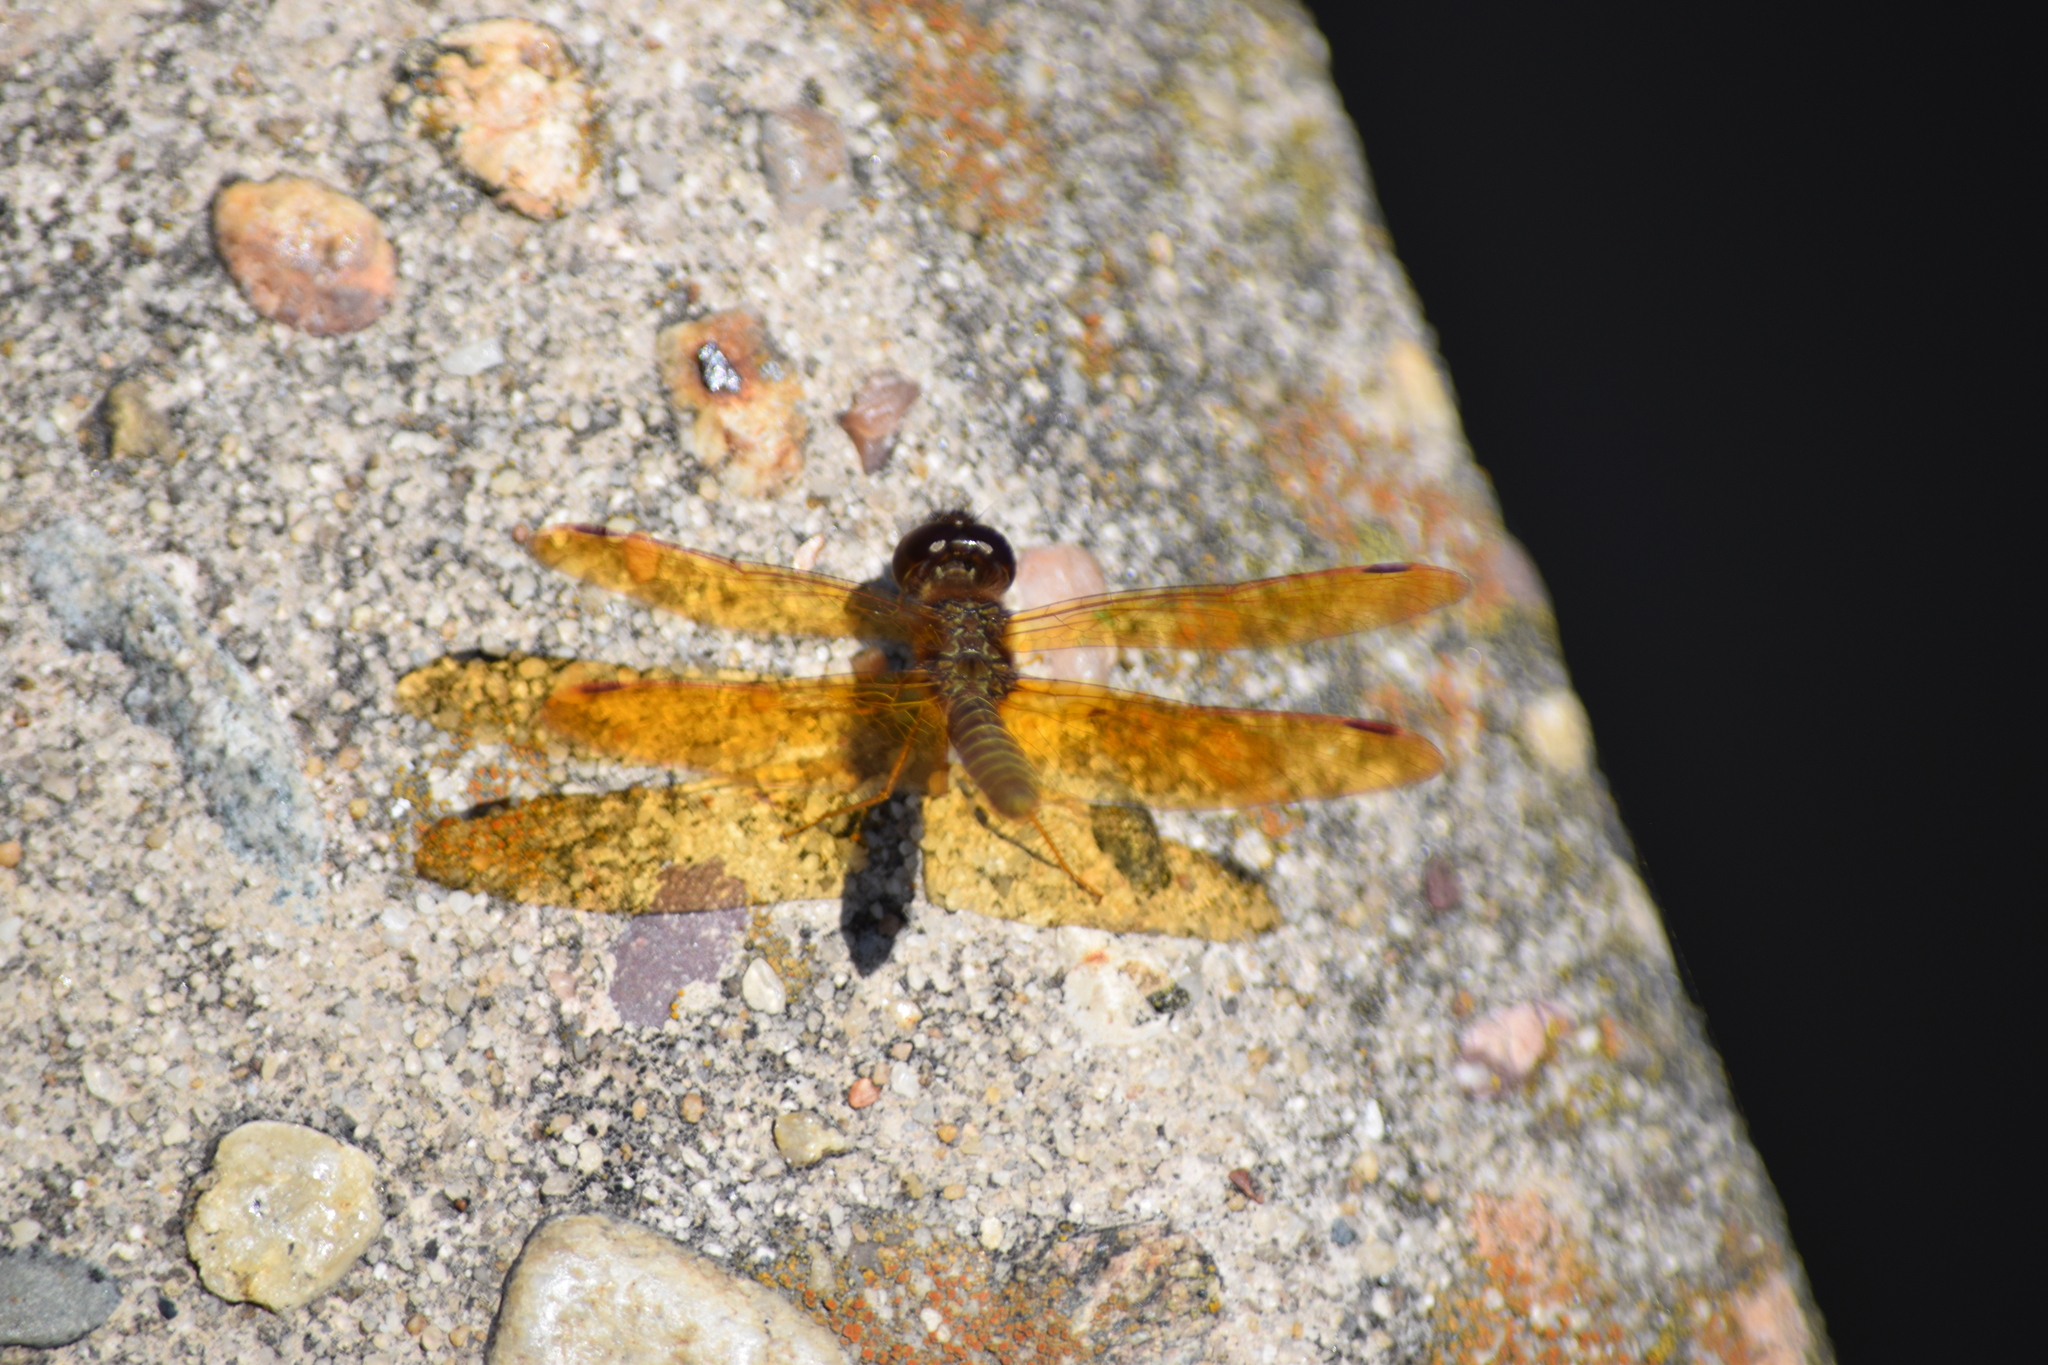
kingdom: Animalia
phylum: Arthropoda
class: Insecta
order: Odonata
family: Libellulidae
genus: Perithemis
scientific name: Perithemis tenera
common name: Eastern amberwing
